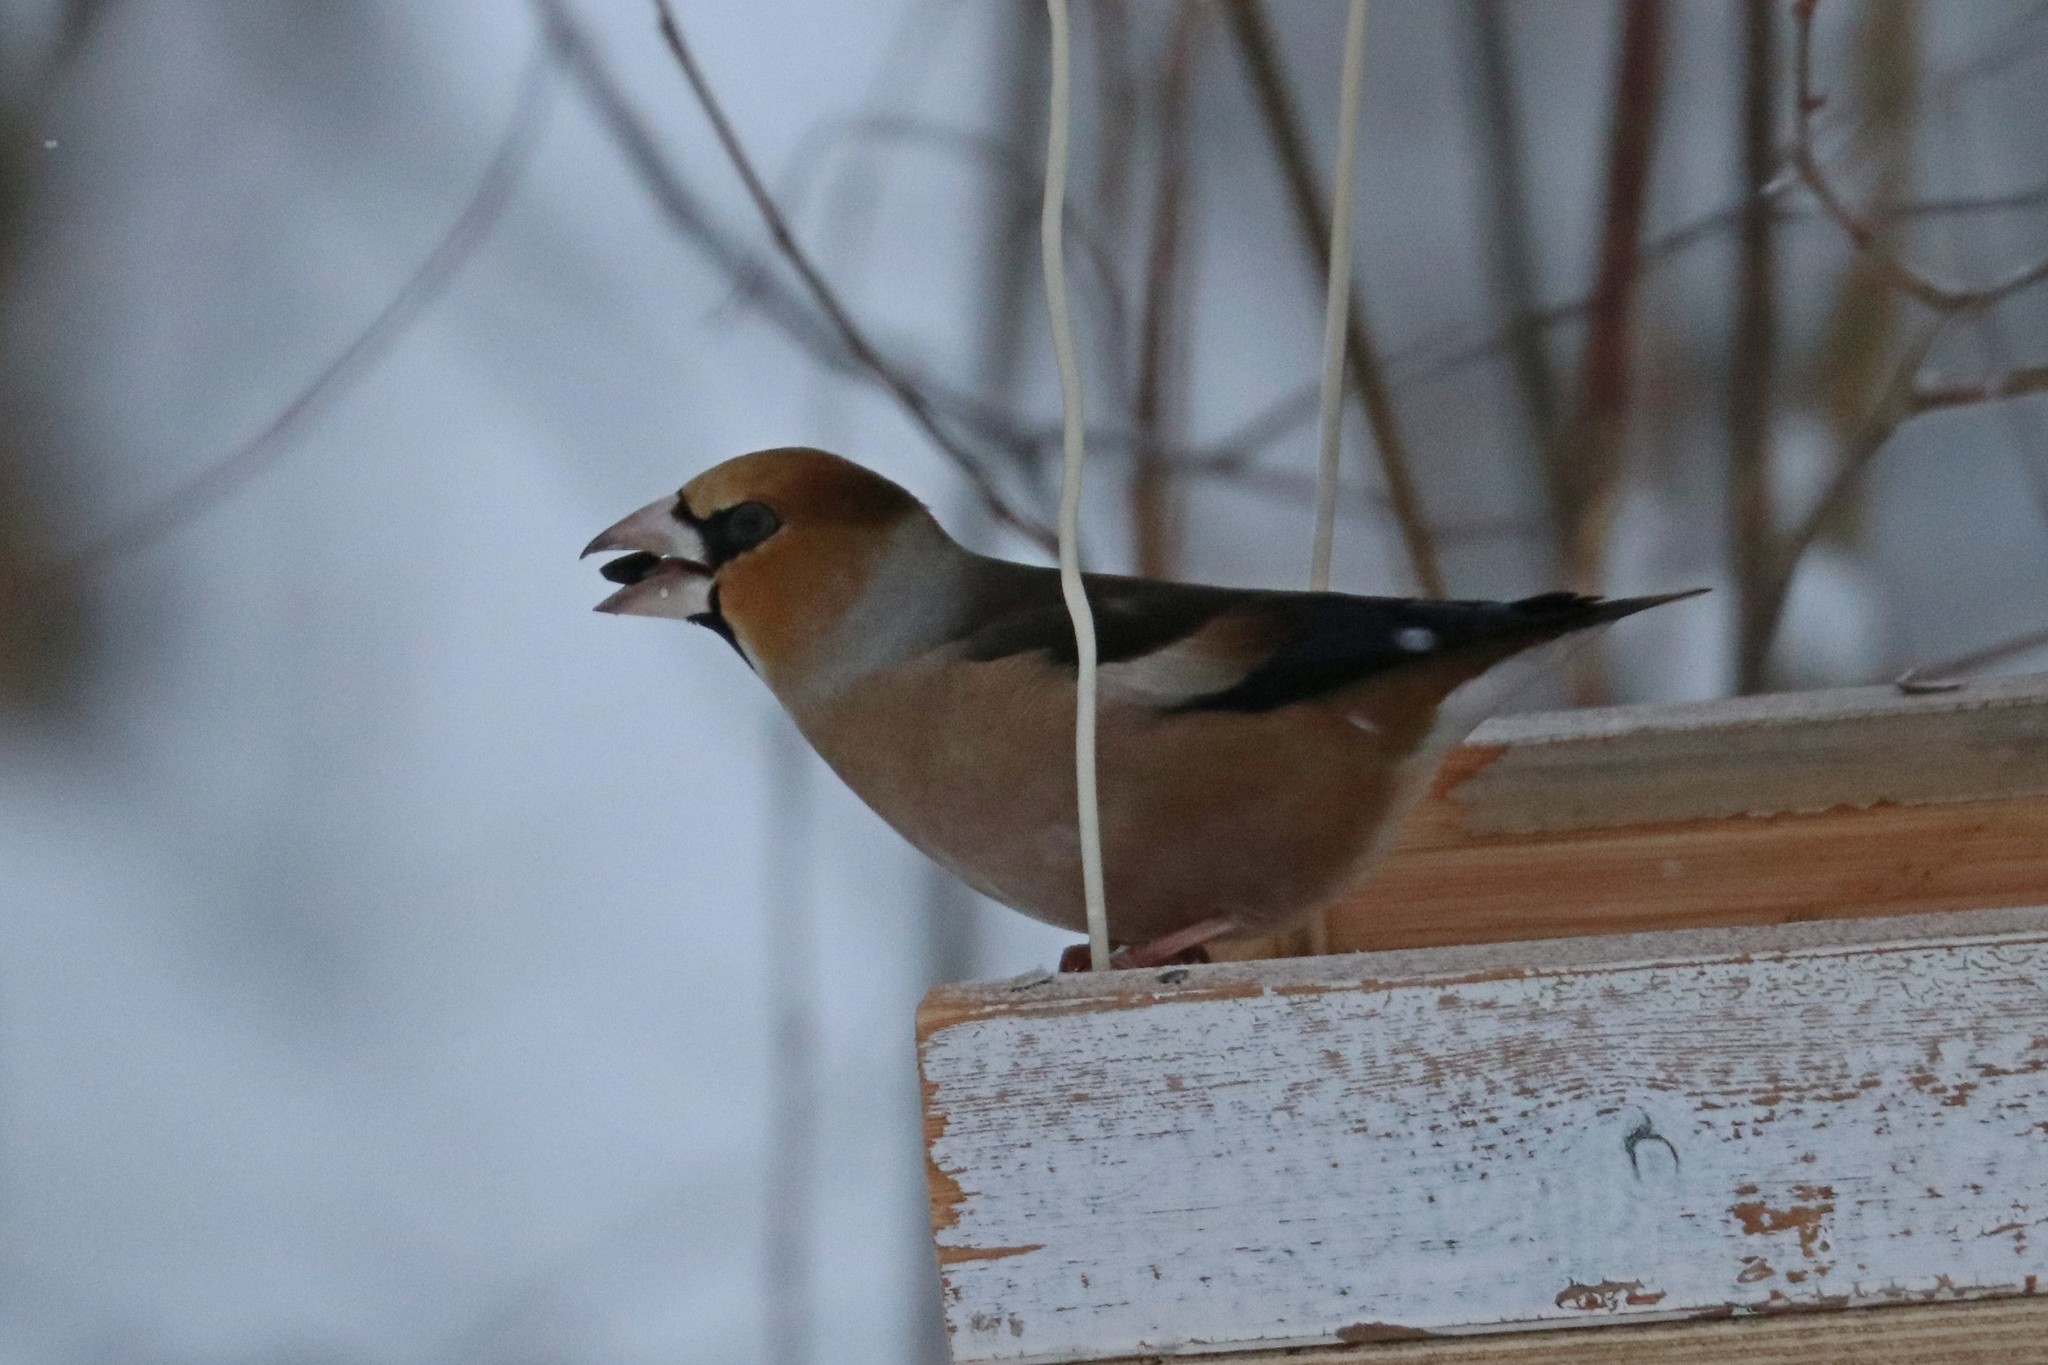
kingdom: Animalia
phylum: Chordata
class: Aves
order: Passeriformes
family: Fringillidae
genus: Coccothraustes
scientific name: Coccothraustes coccothraustes
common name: Hawfinch
